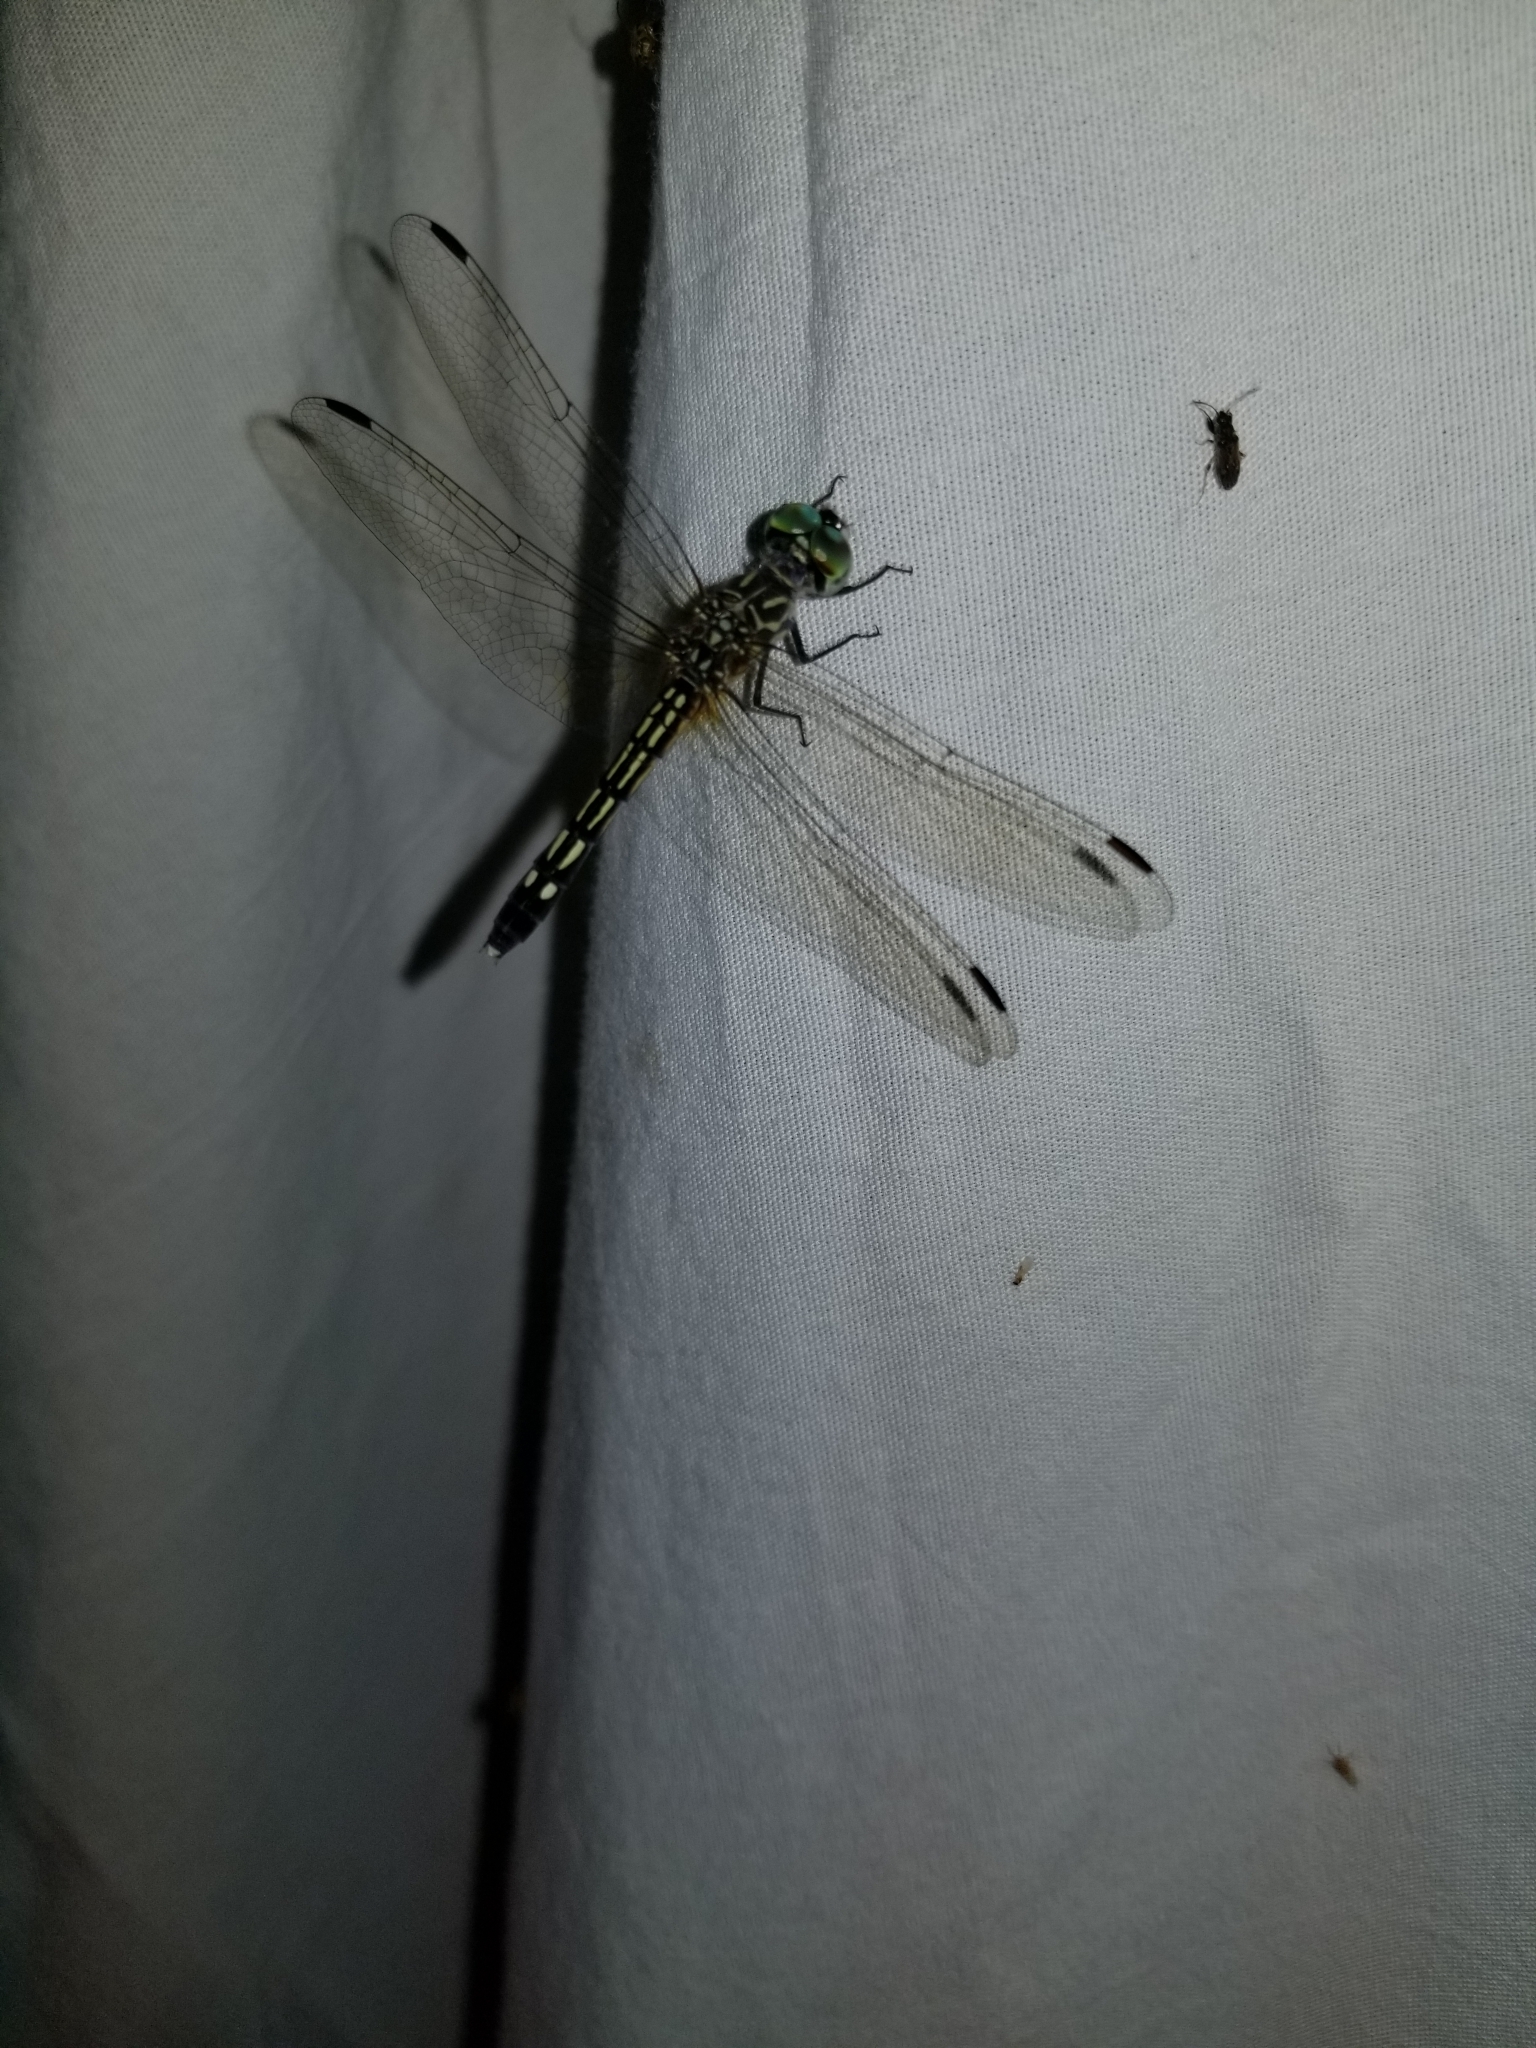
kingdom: Animalia
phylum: Arthropoda
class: Insecta
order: Odonata
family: Libellulidae
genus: Pachydiplax
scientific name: Pachydiplax longipennis
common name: Blue dasher
